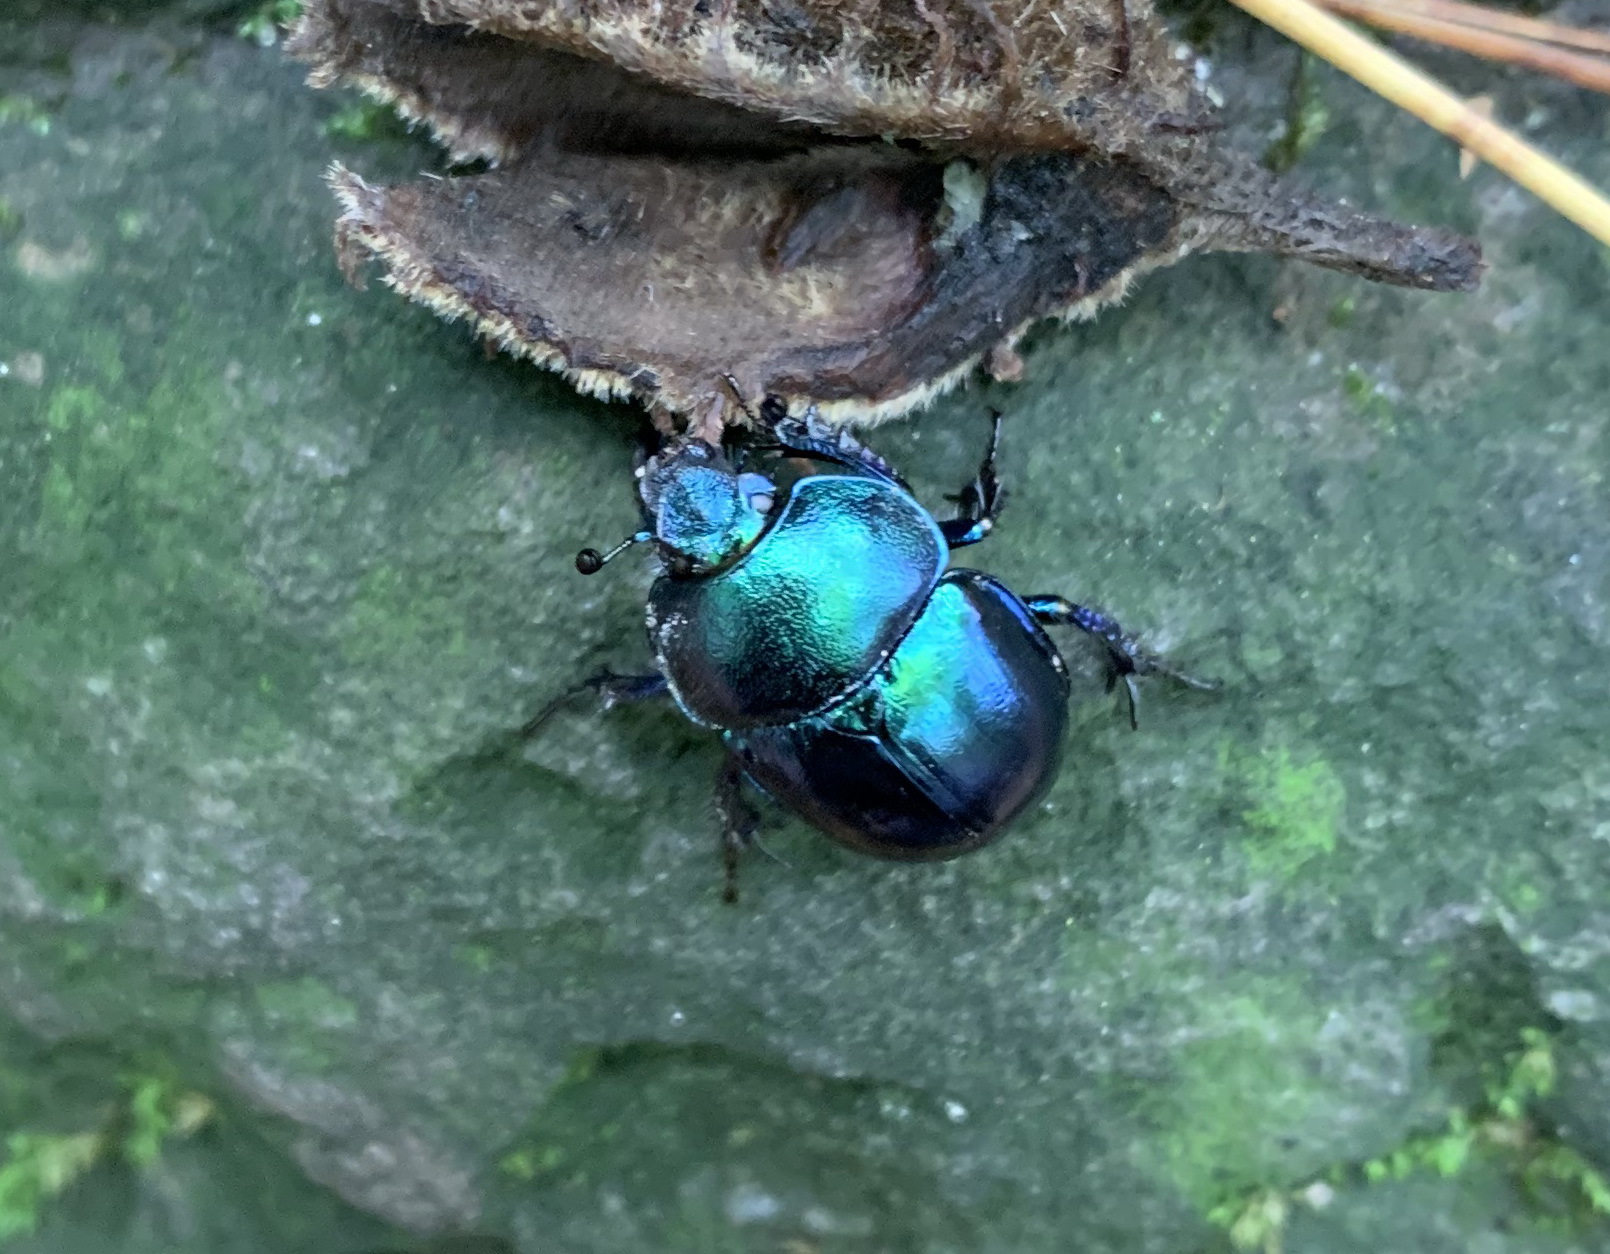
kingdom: Animalia
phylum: Arthropoda
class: Insecta
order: Coleoptera
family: Geotrupidae
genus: Trypocopris
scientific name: Trypocopris vernalis
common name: Spring dumbledor
